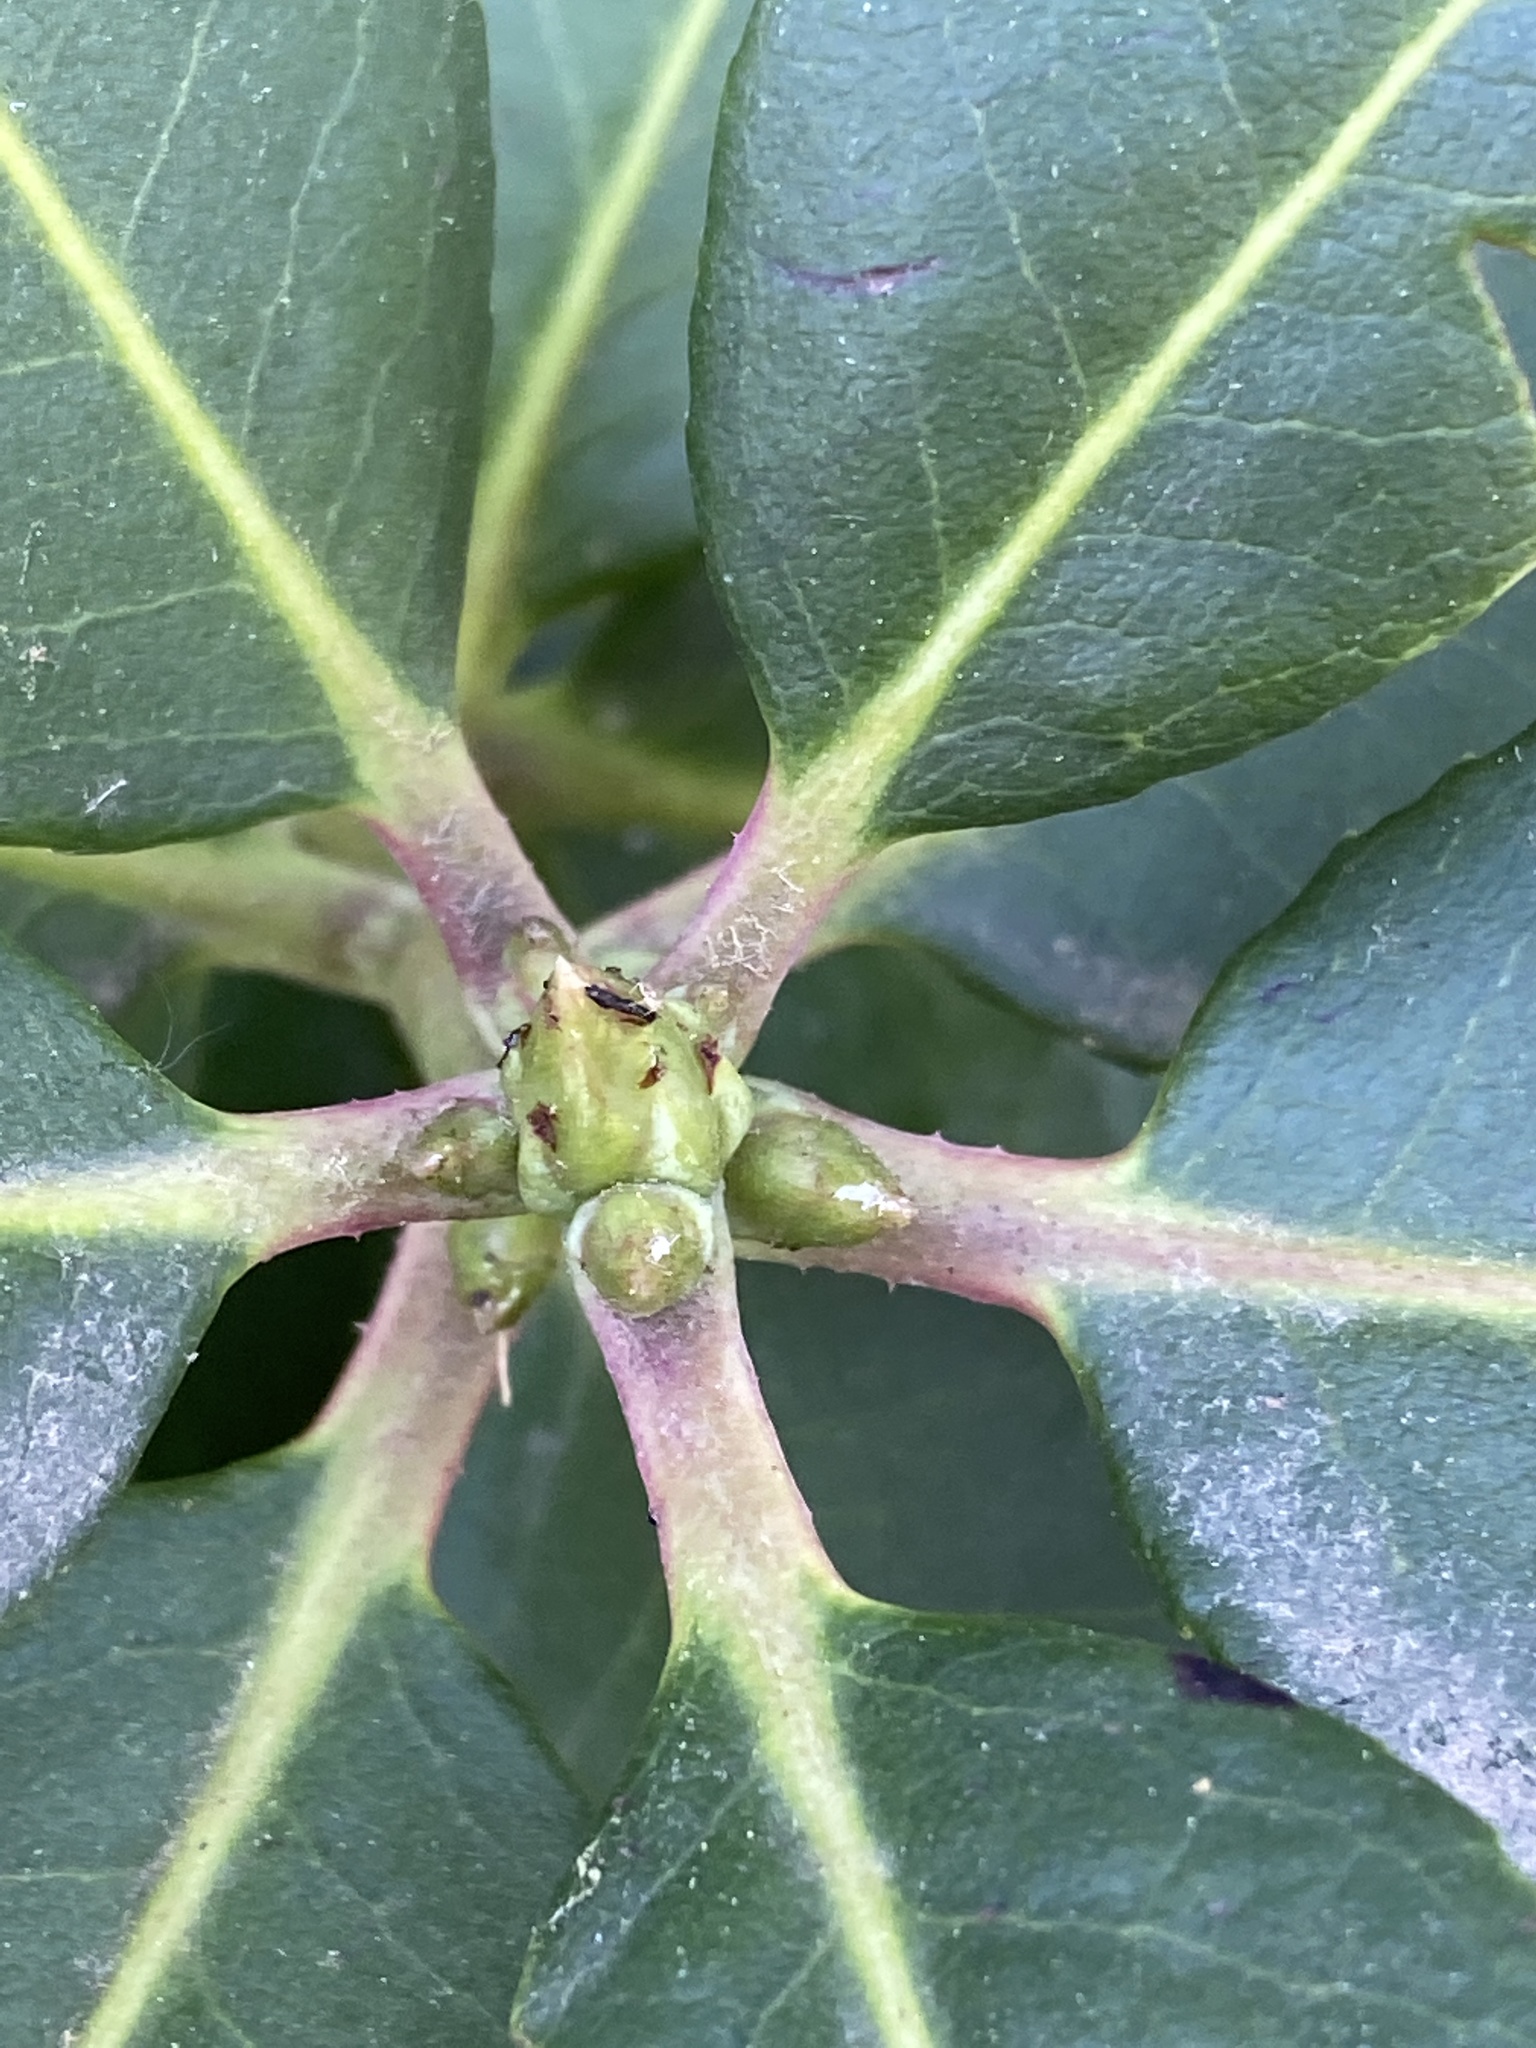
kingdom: Plantae
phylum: Tracheophyta
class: Magnoliopsida
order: Ericales
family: Ericaceae
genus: Arbutus
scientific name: Arbutus menziesii
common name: Pacific madrone
